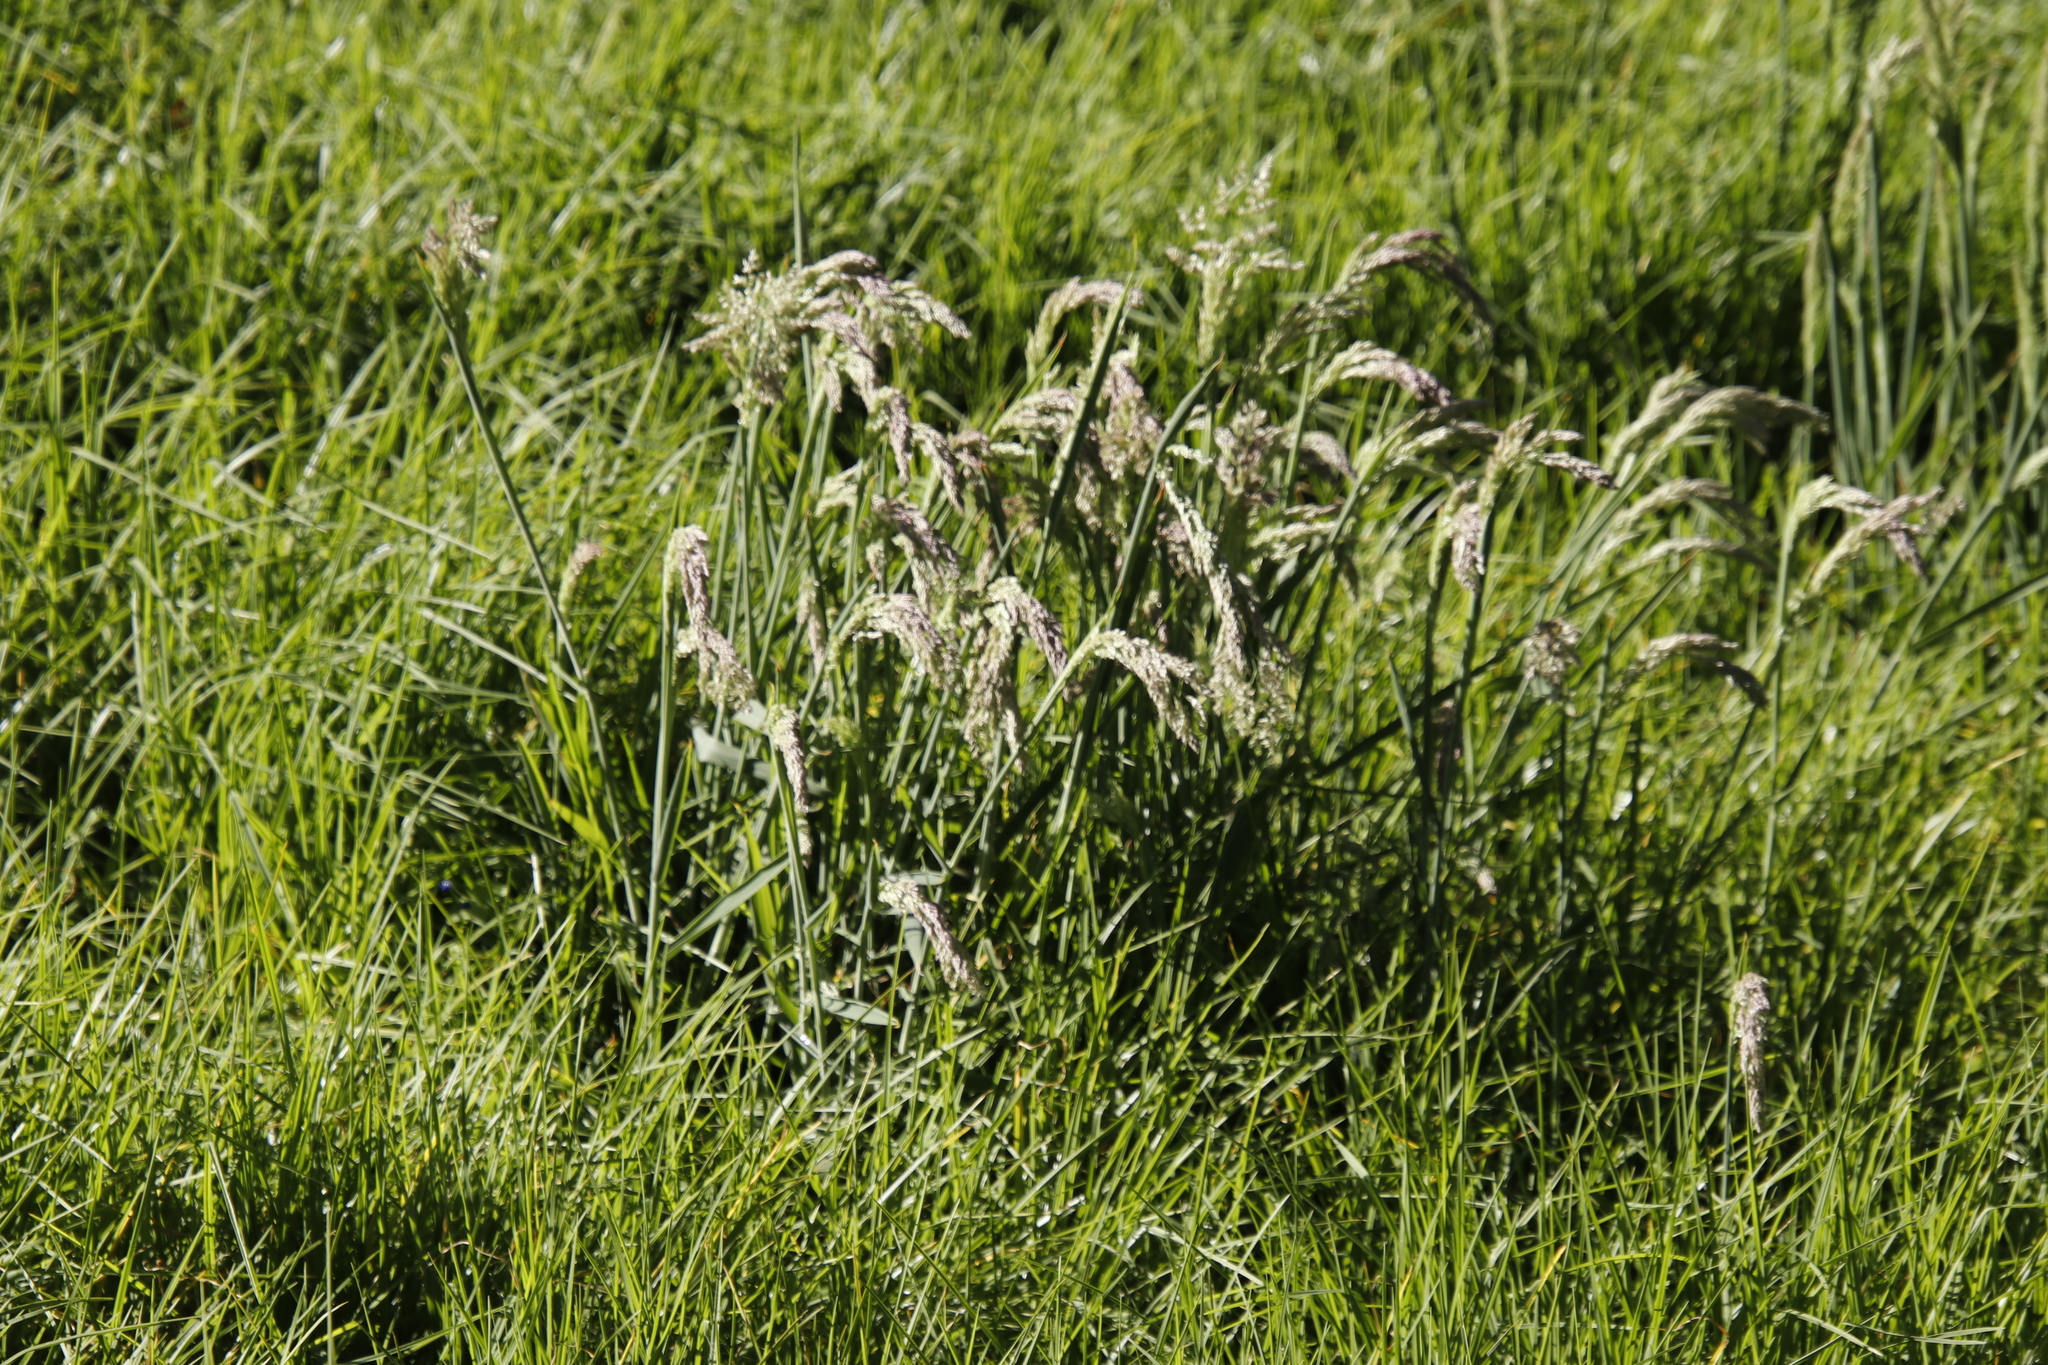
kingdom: Plantae
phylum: Tracheophyta
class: Liliopsida
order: Poales
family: Poaceae
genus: Holcus
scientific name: Holcus lanatus
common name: Yorkshire-fog
